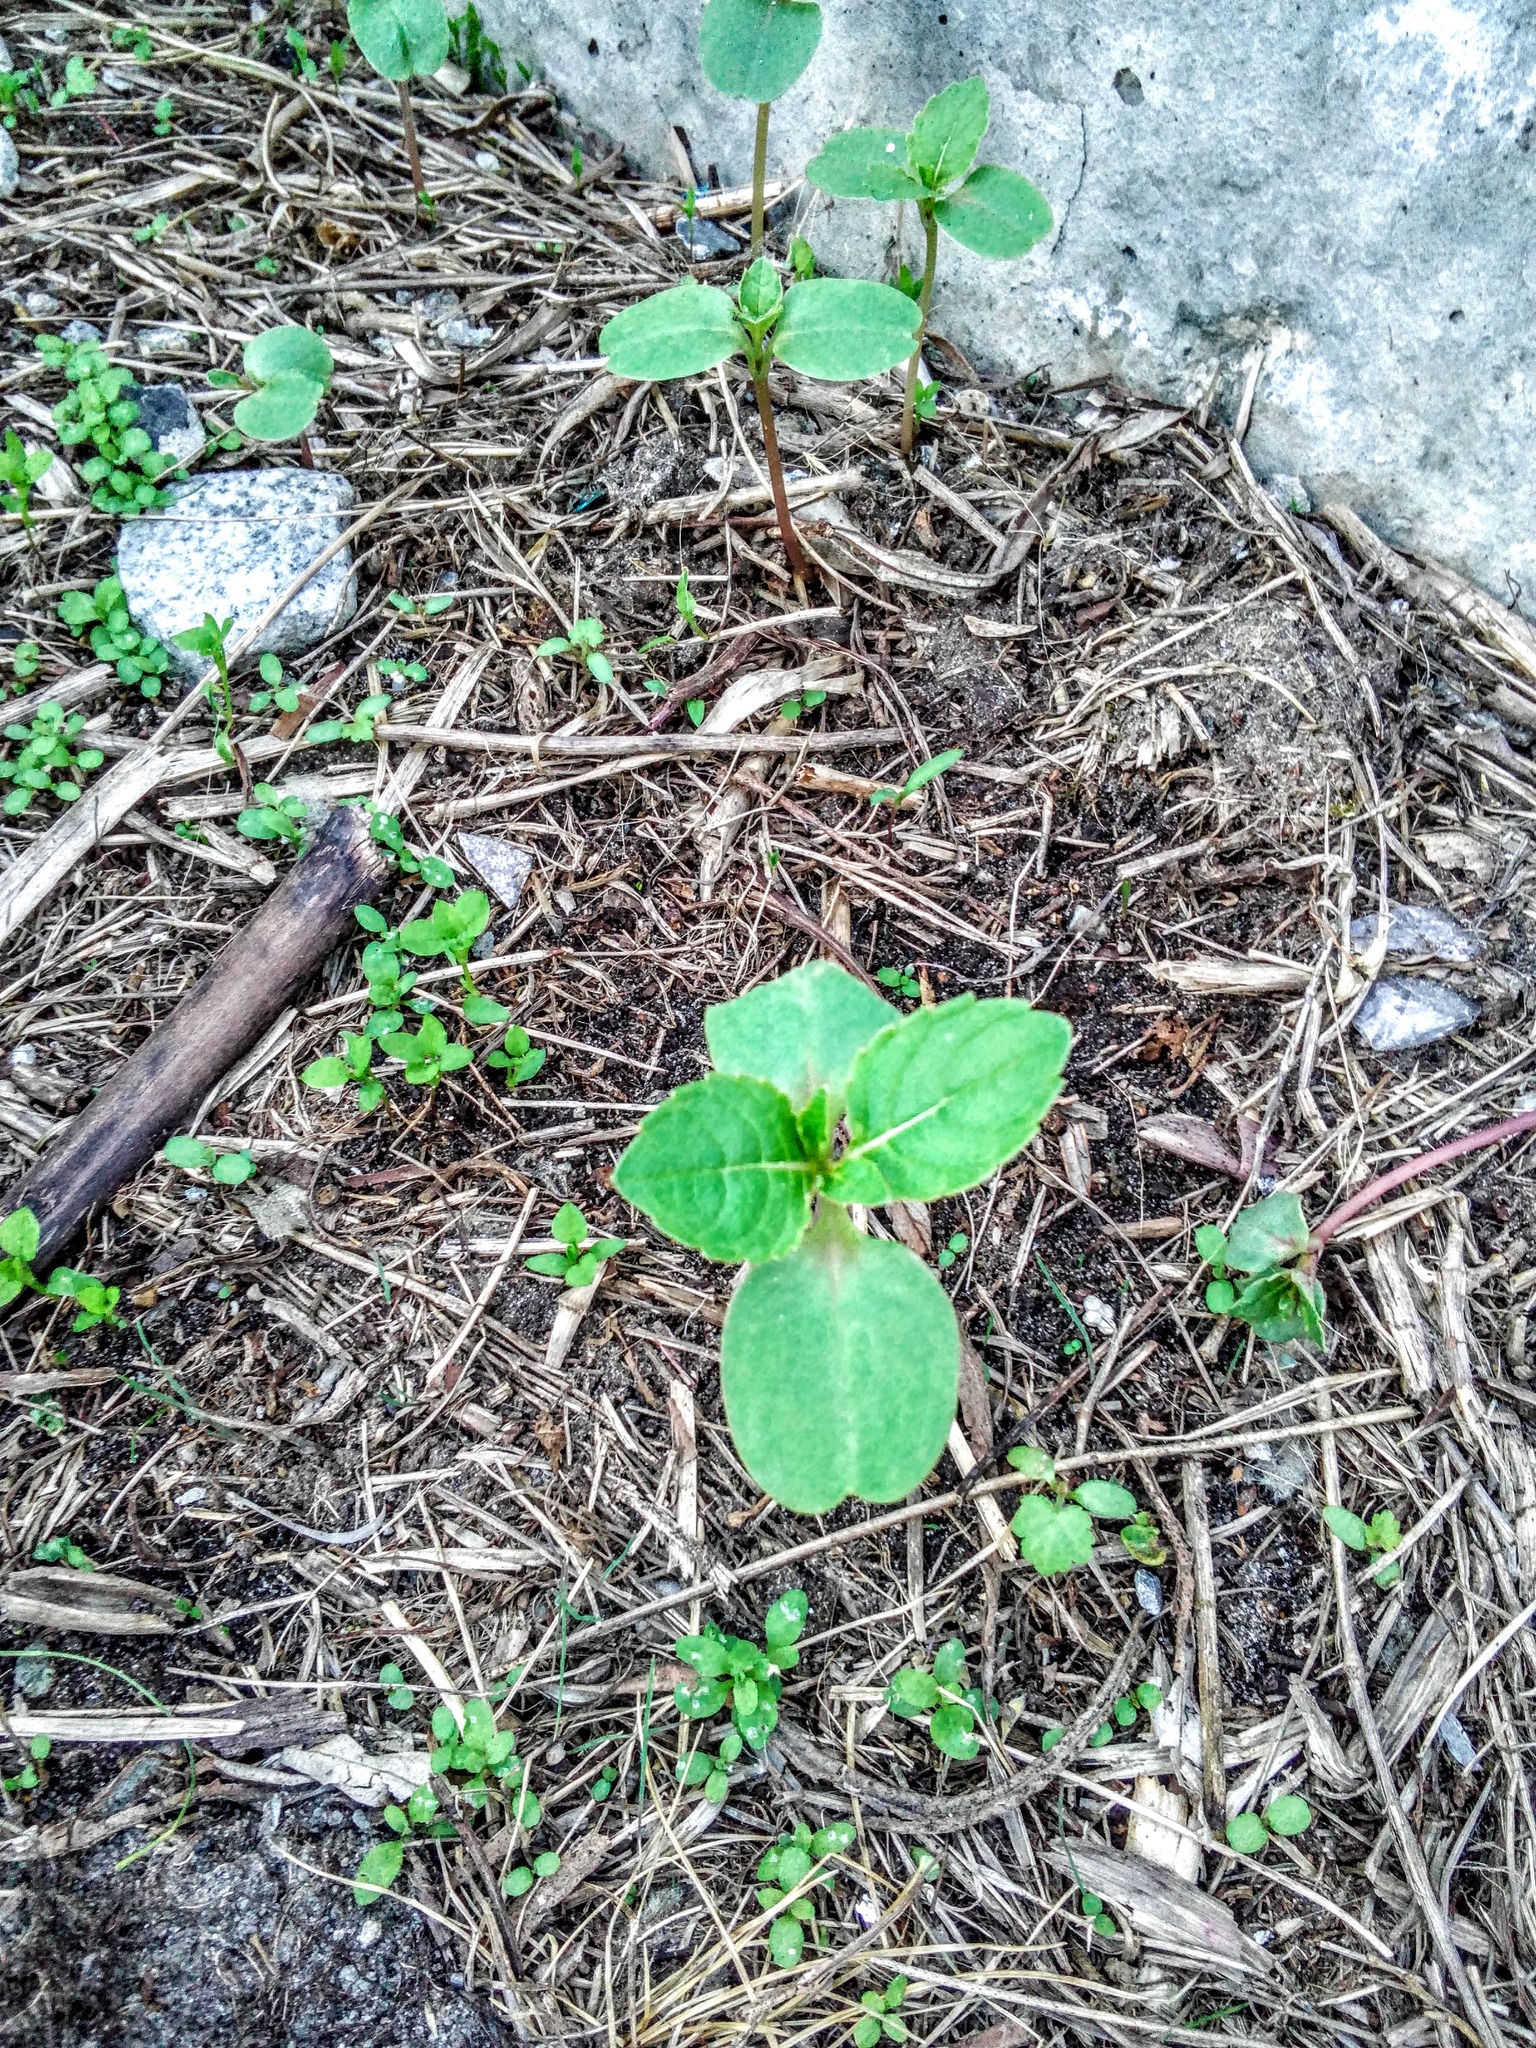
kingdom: Plantae
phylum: Tracheophyta
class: Magnoliopsida
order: Ericales
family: Balsaminaceae
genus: Impatiens
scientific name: Impatiens glandulifera
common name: Himalayan balsam
